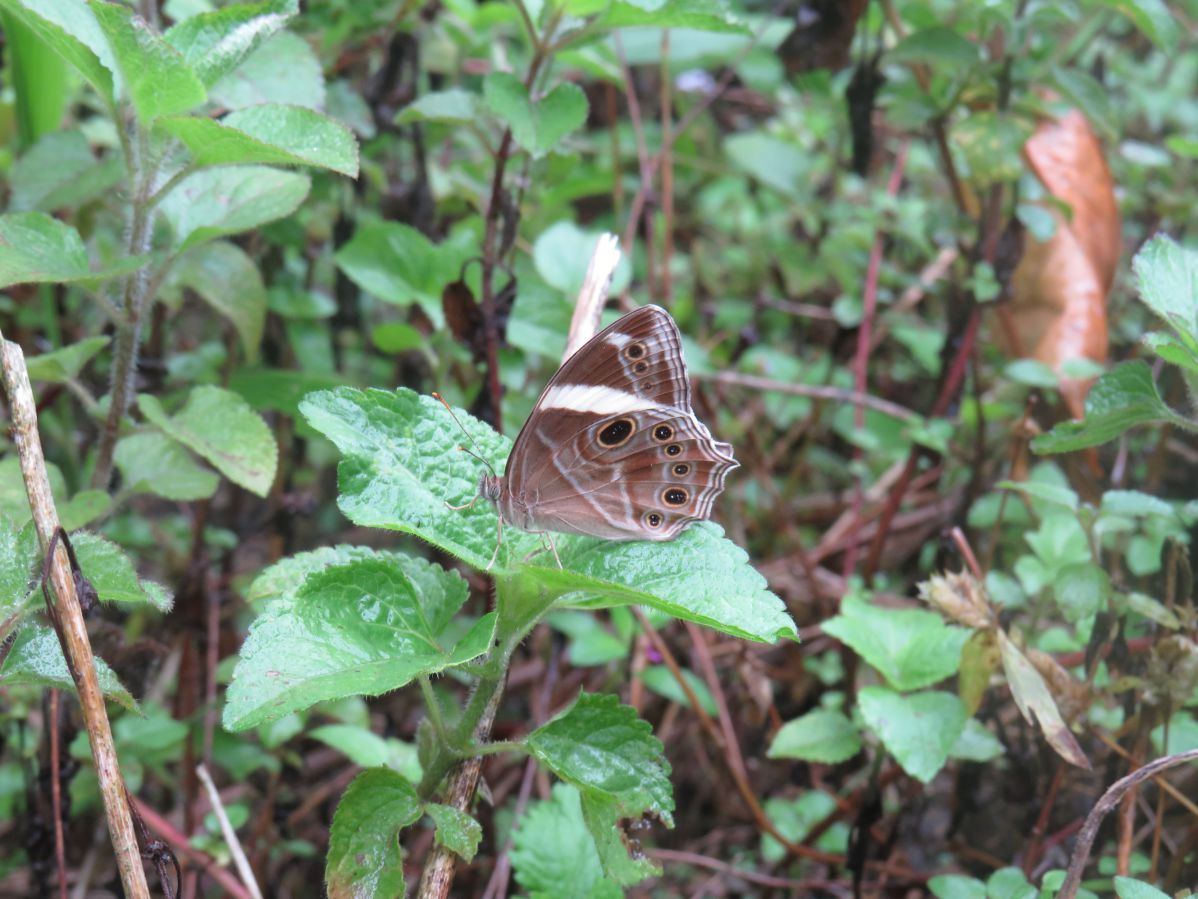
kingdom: Animalia
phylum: Arthropoda
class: Insecta
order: Lepidoptera
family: Nymphalidae
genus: Lethe
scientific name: Lethe confusa
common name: Banded treebrown
